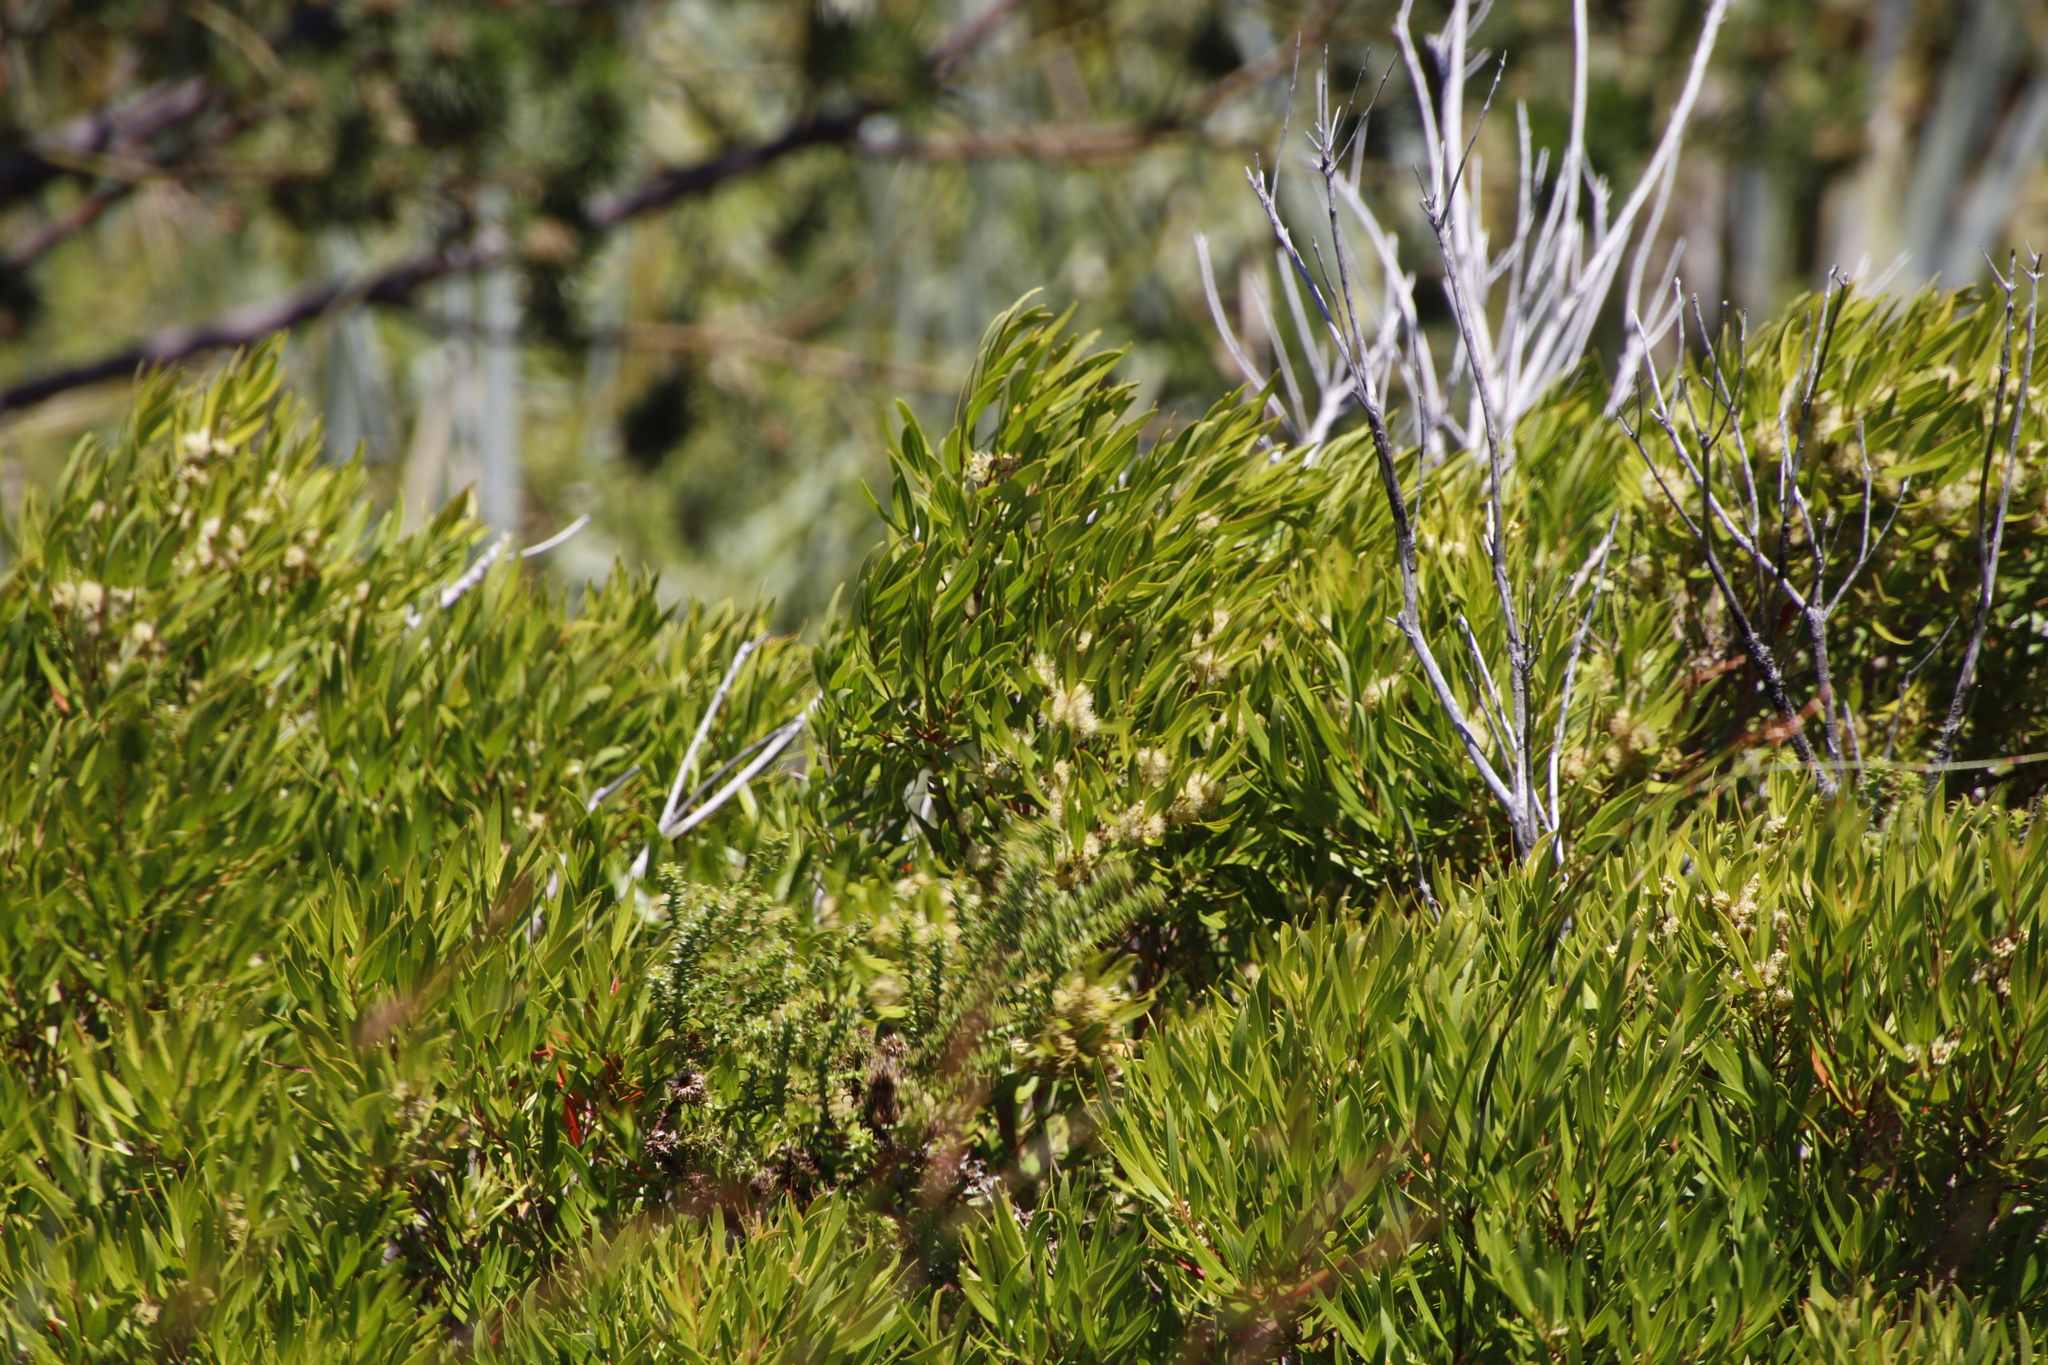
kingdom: Plantae
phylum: Tracheophyta
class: Magnoliopsida
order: Myrtales
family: Myrtaceae
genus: Callistemon
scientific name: Callistemon lanceolatus
